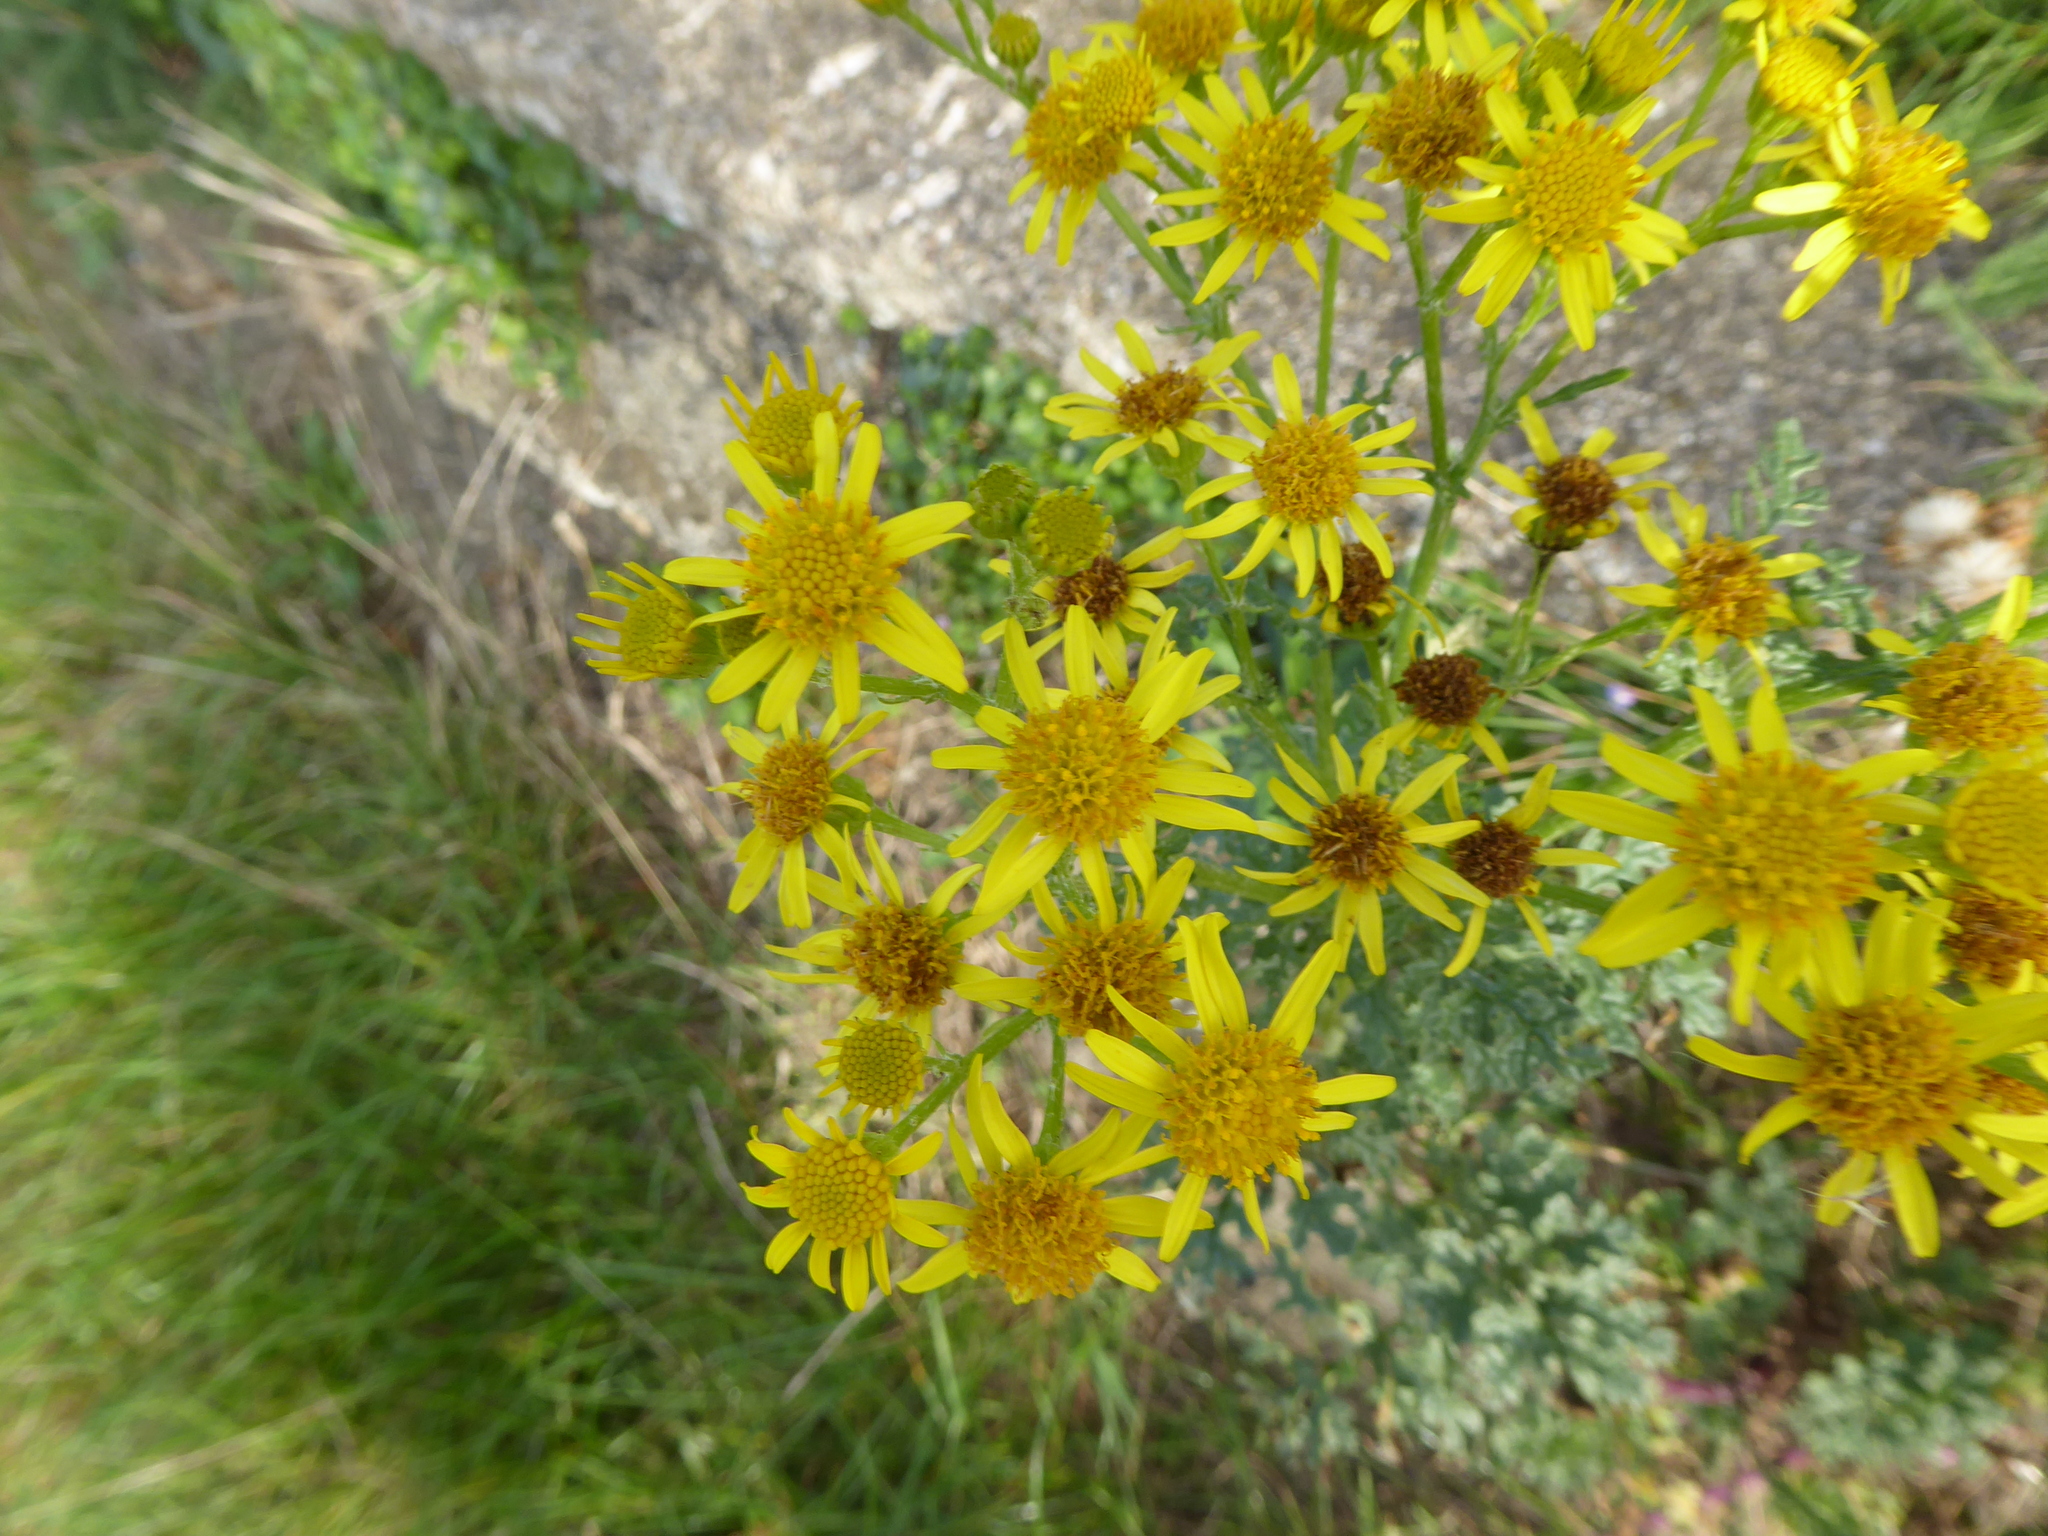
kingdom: Plantae
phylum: Tracheophyta
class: Magnoliopsida
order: Asterales
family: Asteraceae
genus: Jacobaea
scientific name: Jacobaea vulgaris
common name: Stinking willie
